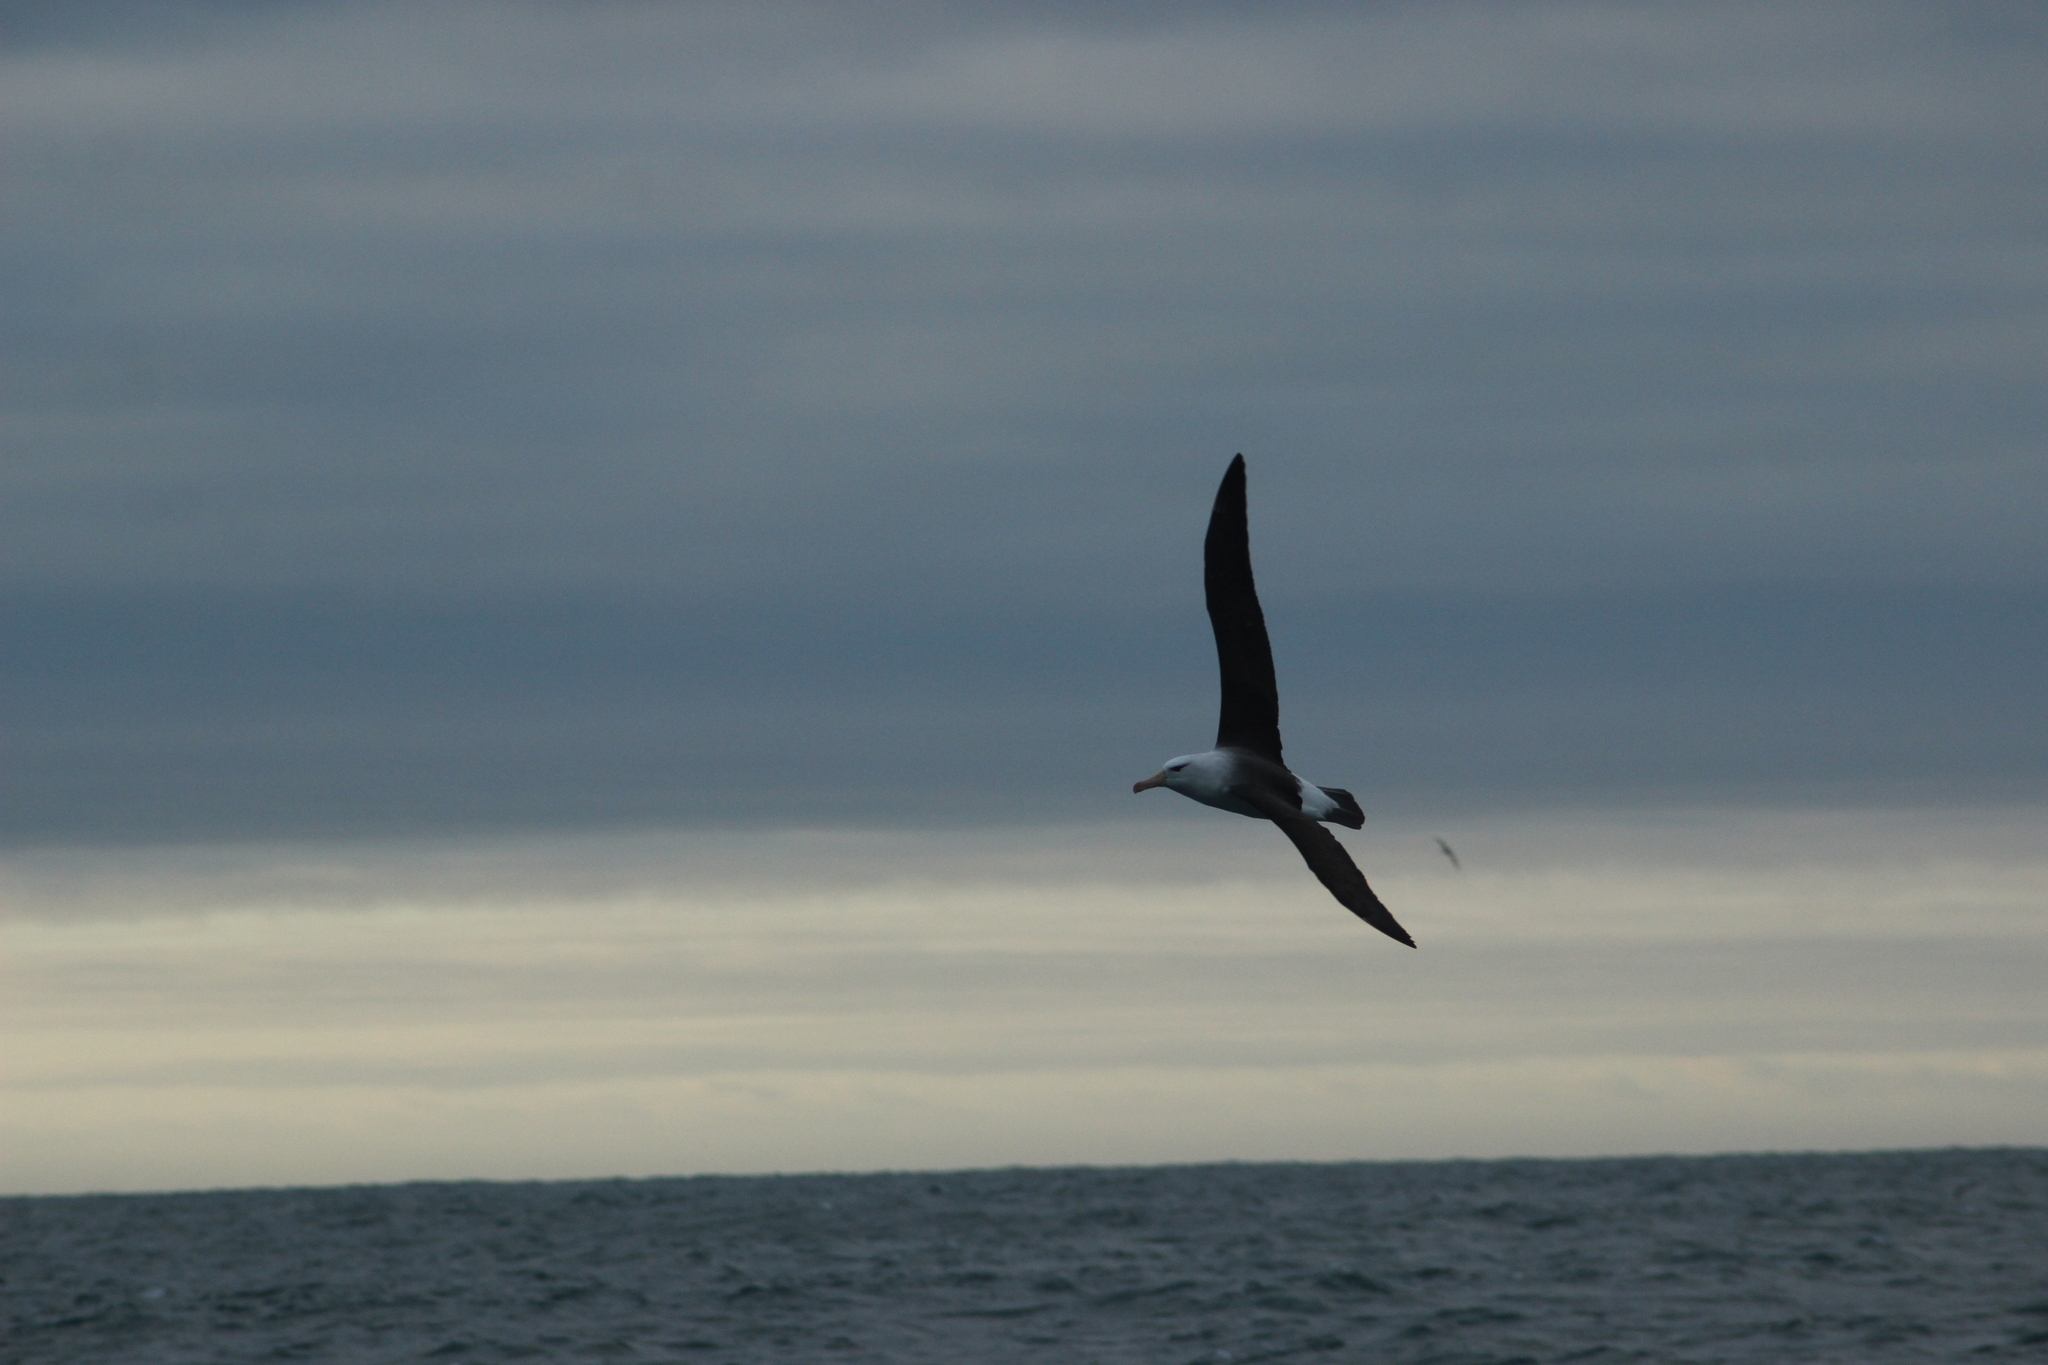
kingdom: Animalia
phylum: Chordata
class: Aves
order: Procellariiformes
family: Diomedeidae
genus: Thalassarche
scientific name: Thalassarche melanophris
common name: Black-browed albatross
